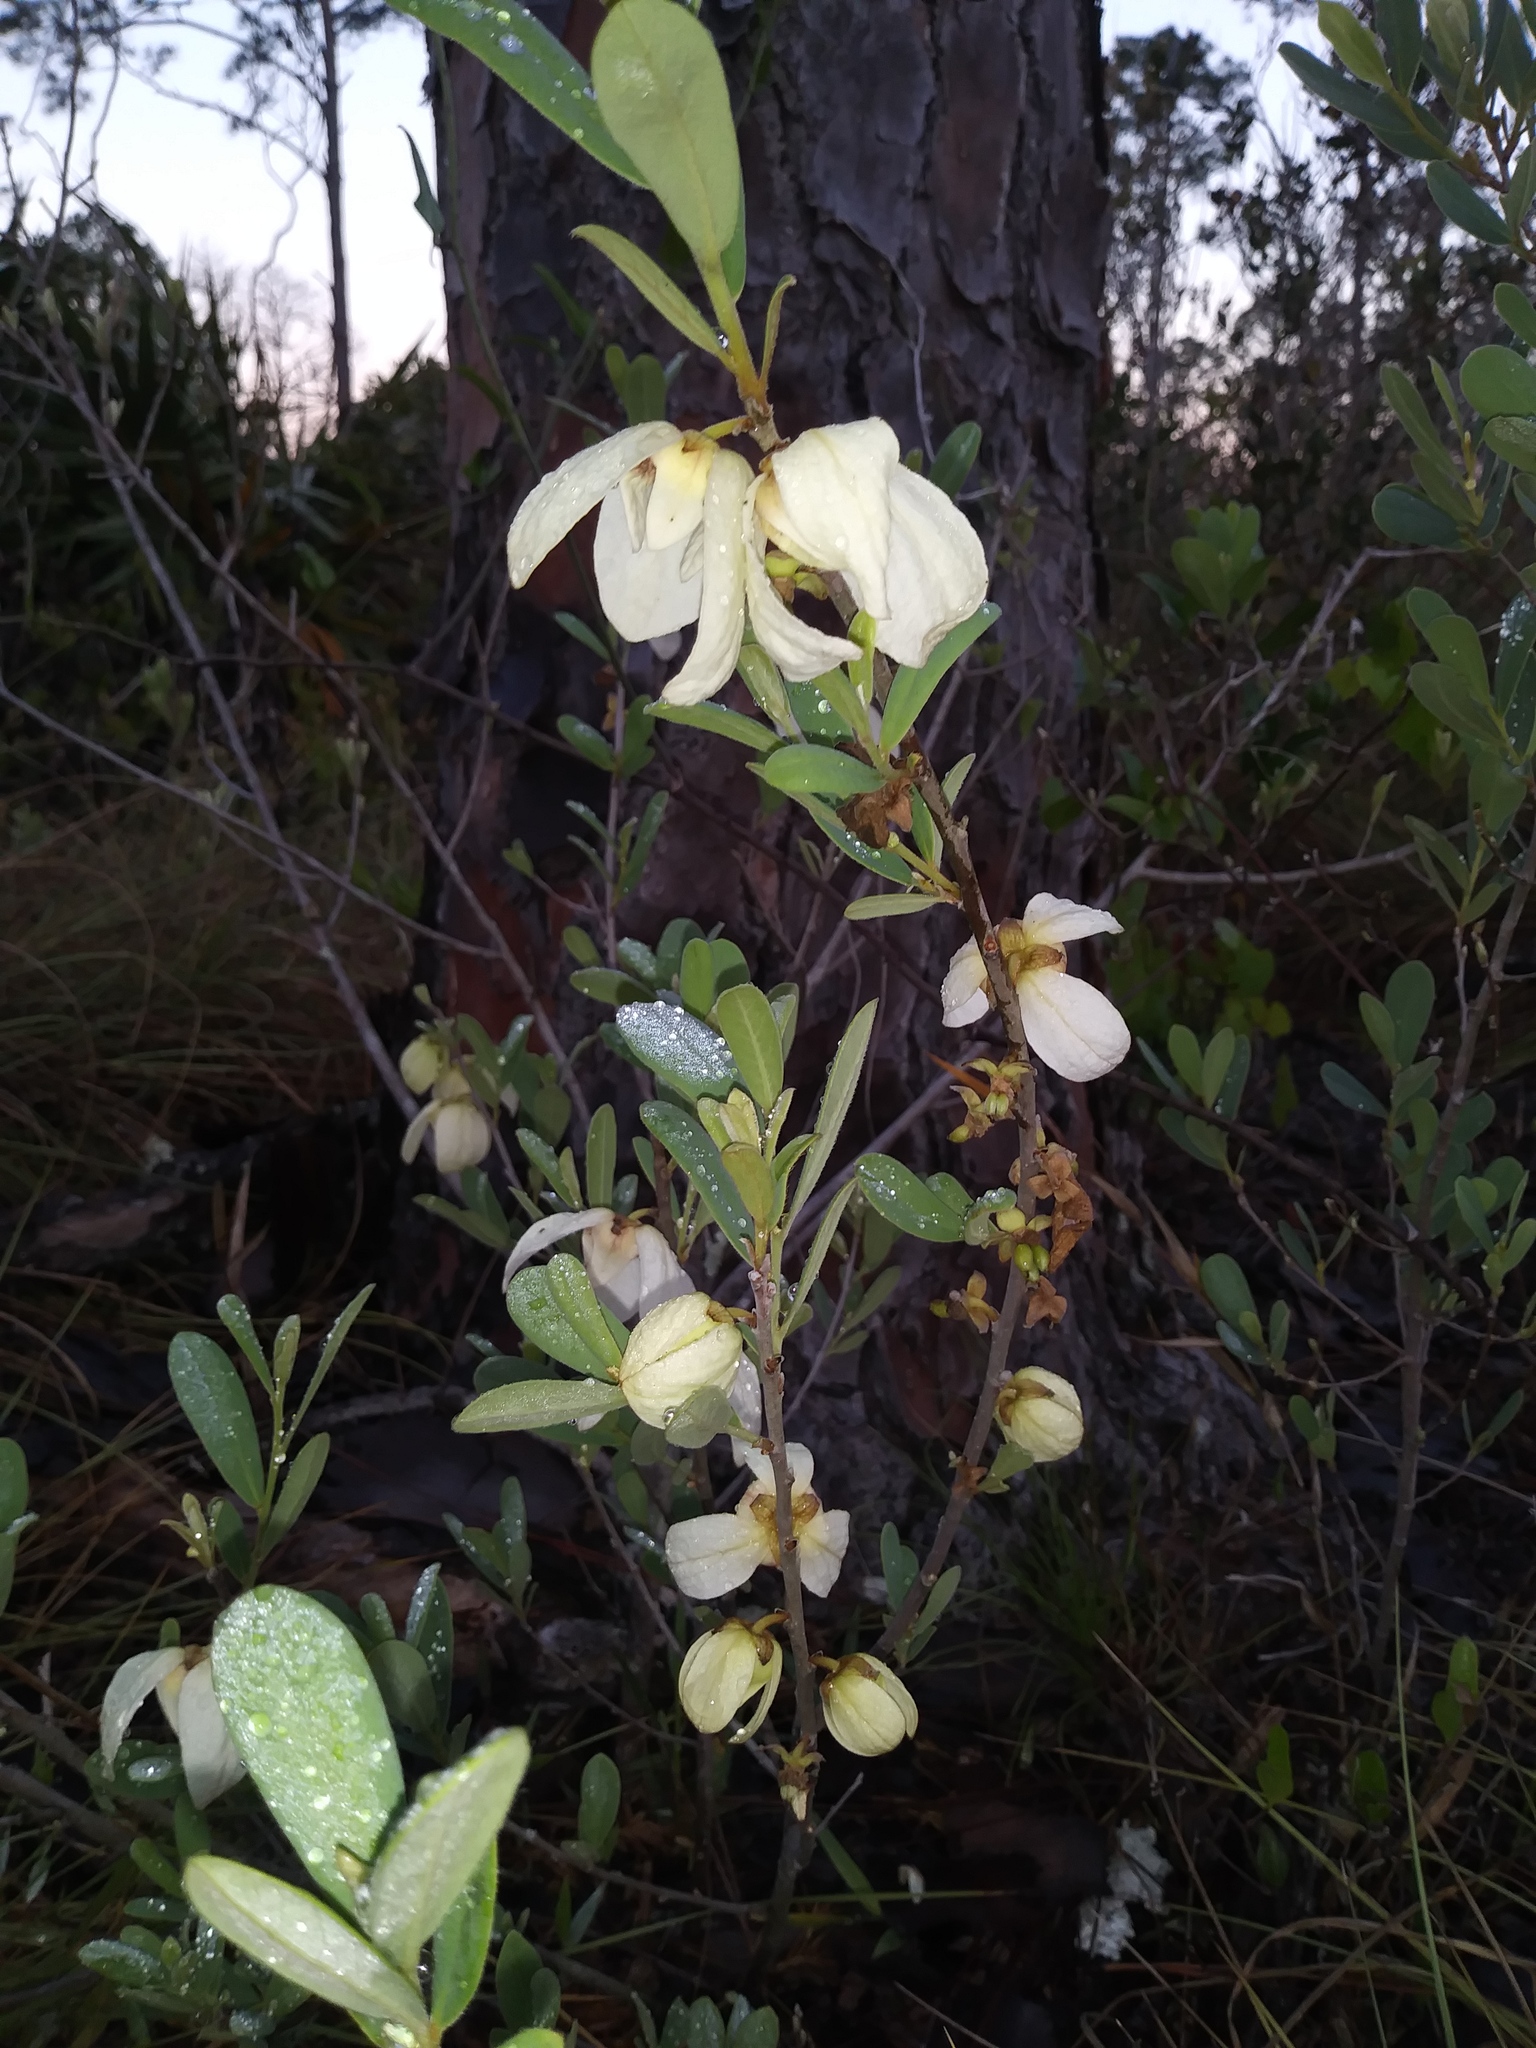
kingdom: Plantae
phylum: Tracheophyta
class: Magnoliopsida
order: Magnoliales
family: Annonaceae
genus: Asimina
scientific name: Asimina reticulata
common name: Flag pawpaw
